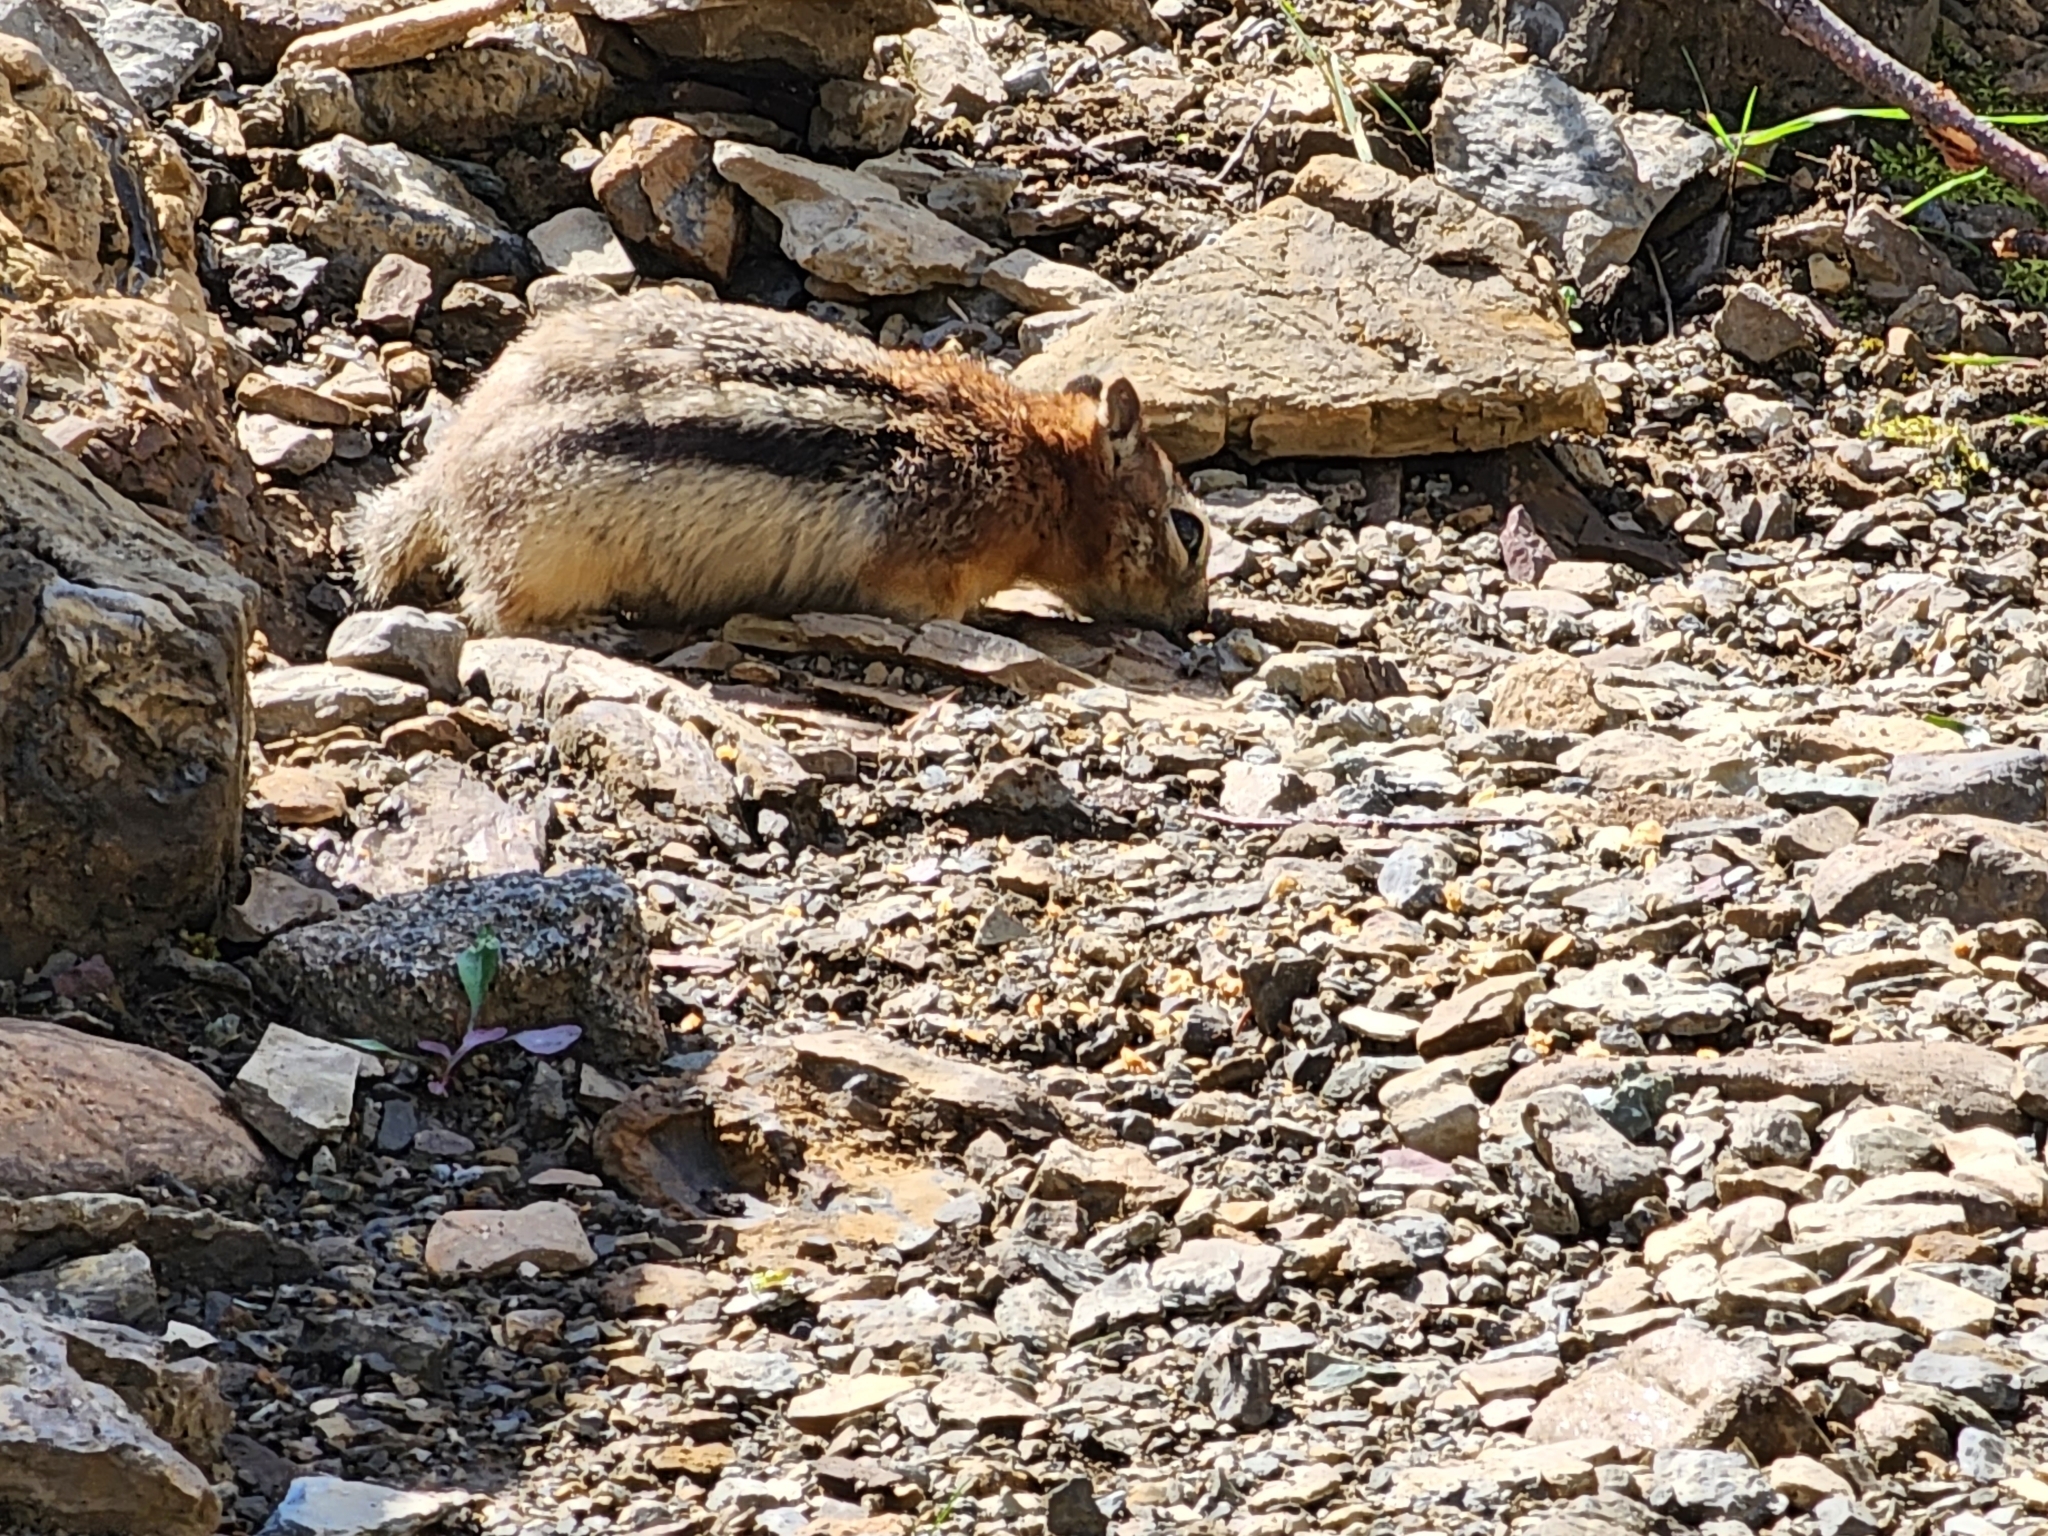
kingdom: Animalia
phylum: Chordata
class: Mammalia
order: Rodentia
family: Sciuridae
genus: Callospermophilus
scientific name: Callospermophilus lateralis
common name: Golden-mantled ground squirrel
